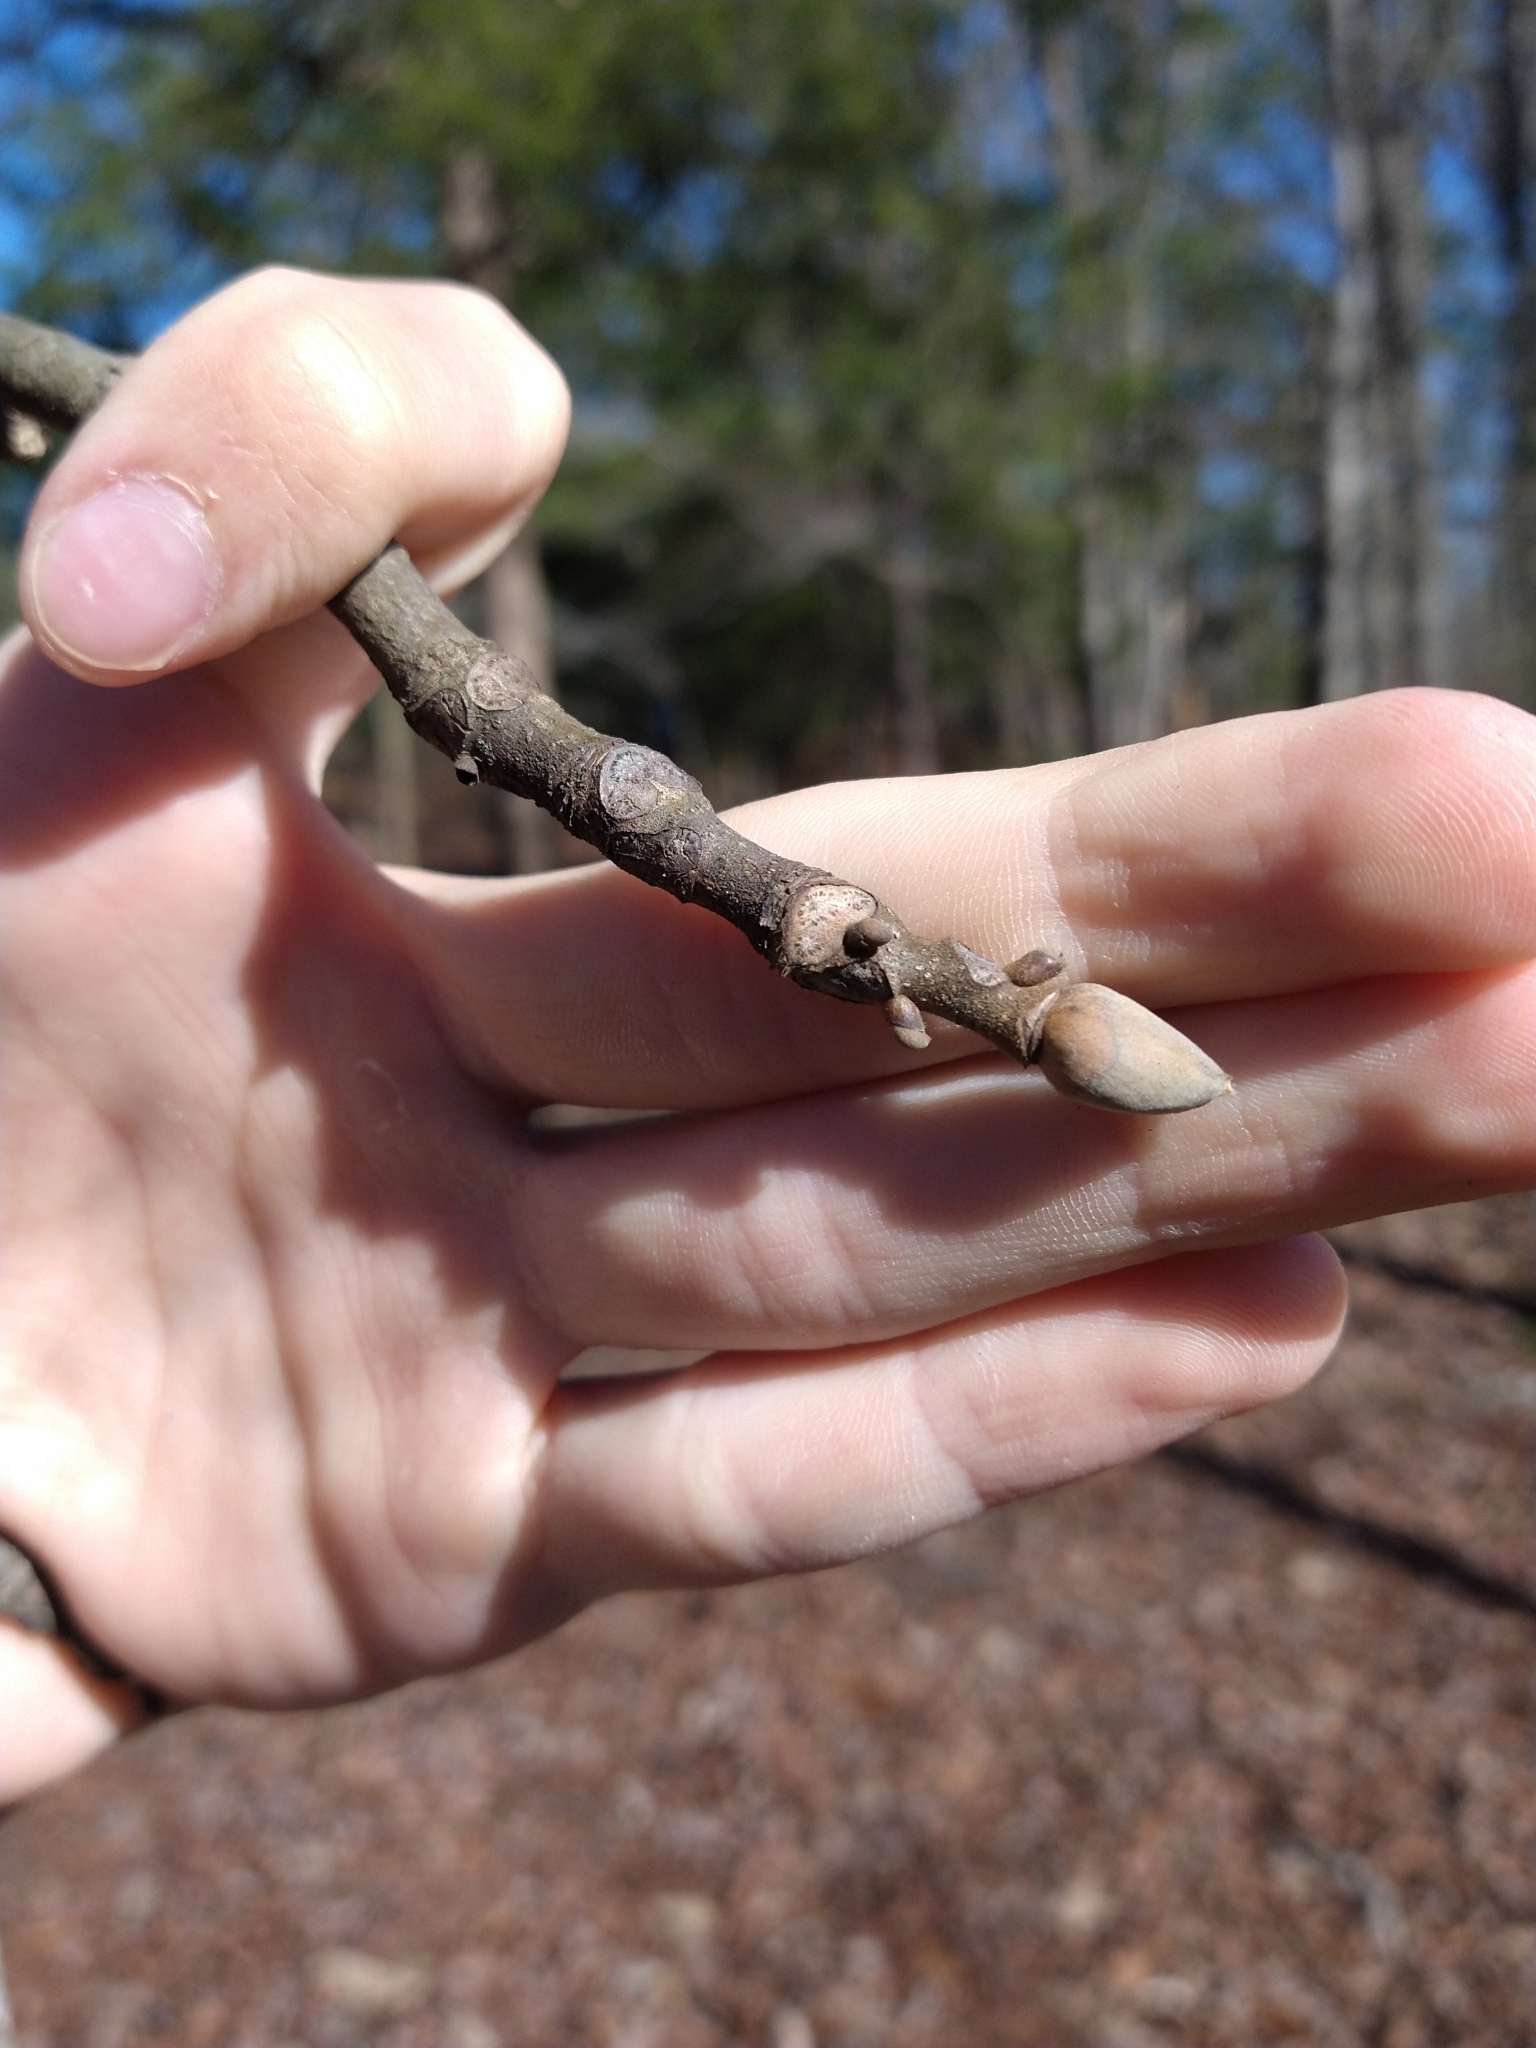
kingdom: Plantae
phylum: Tracheophyta
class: Magnoliopsida
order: Fagales
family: Juglandaceae
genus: Carya
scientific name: Carya alba
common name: Mockernut hickory
